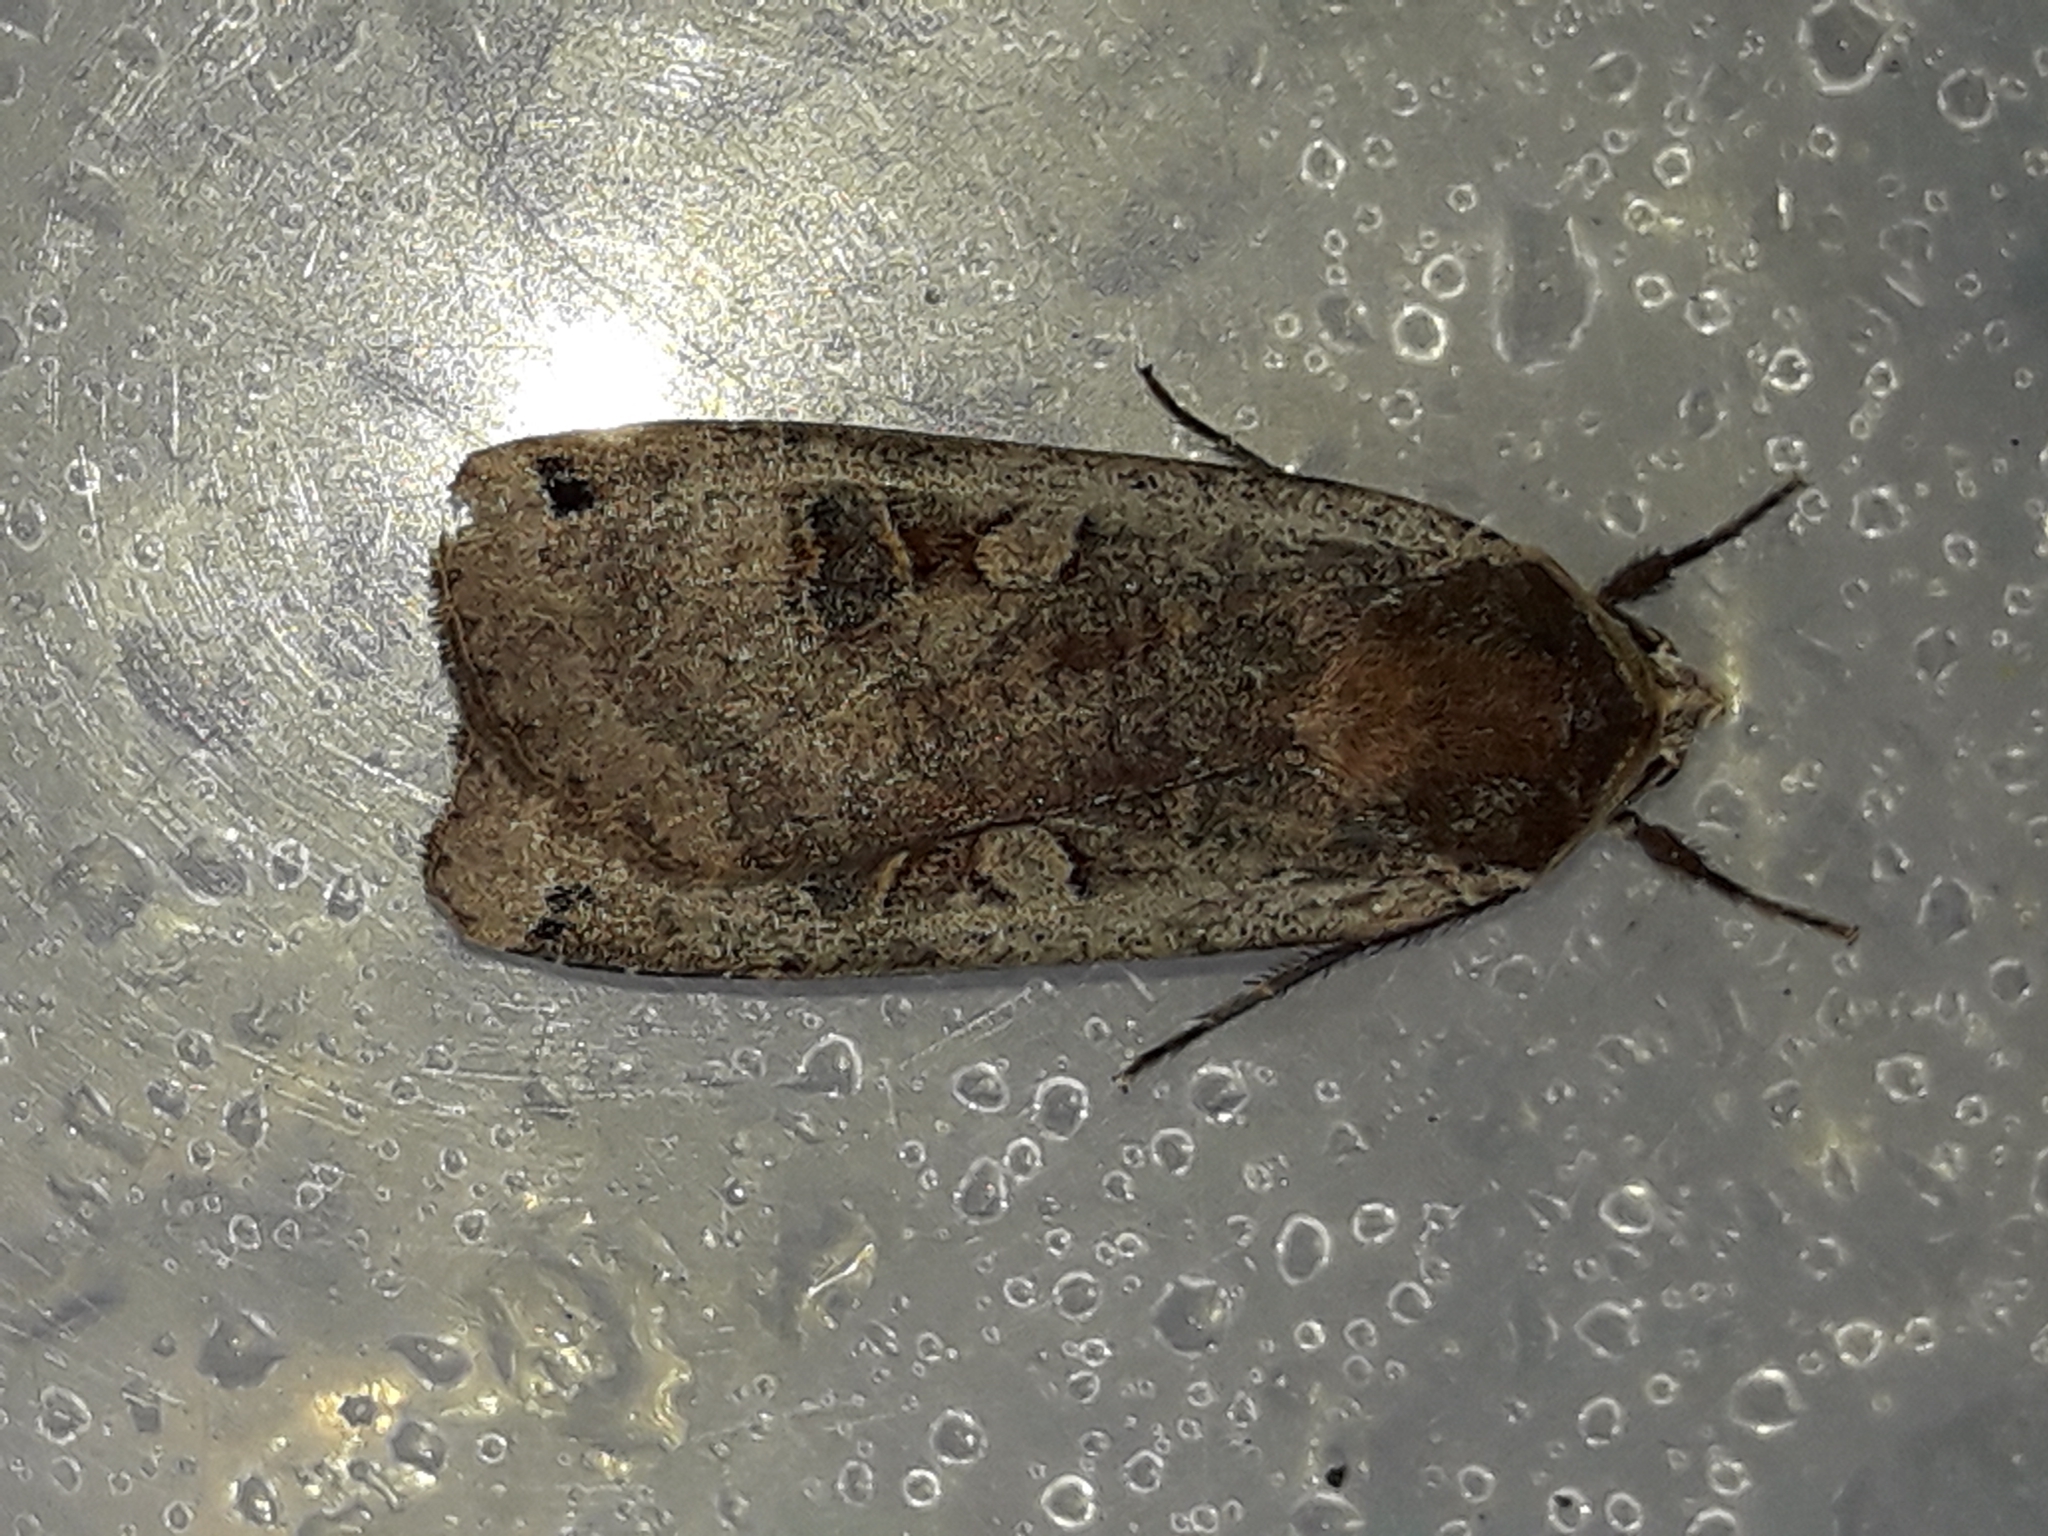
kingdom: Animalia
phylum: Arthropoda
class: Insecta
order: Lepidoptera
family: Noctuidae
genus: Noctua
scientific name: Noctua pronuba
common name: Large yellow underwing
